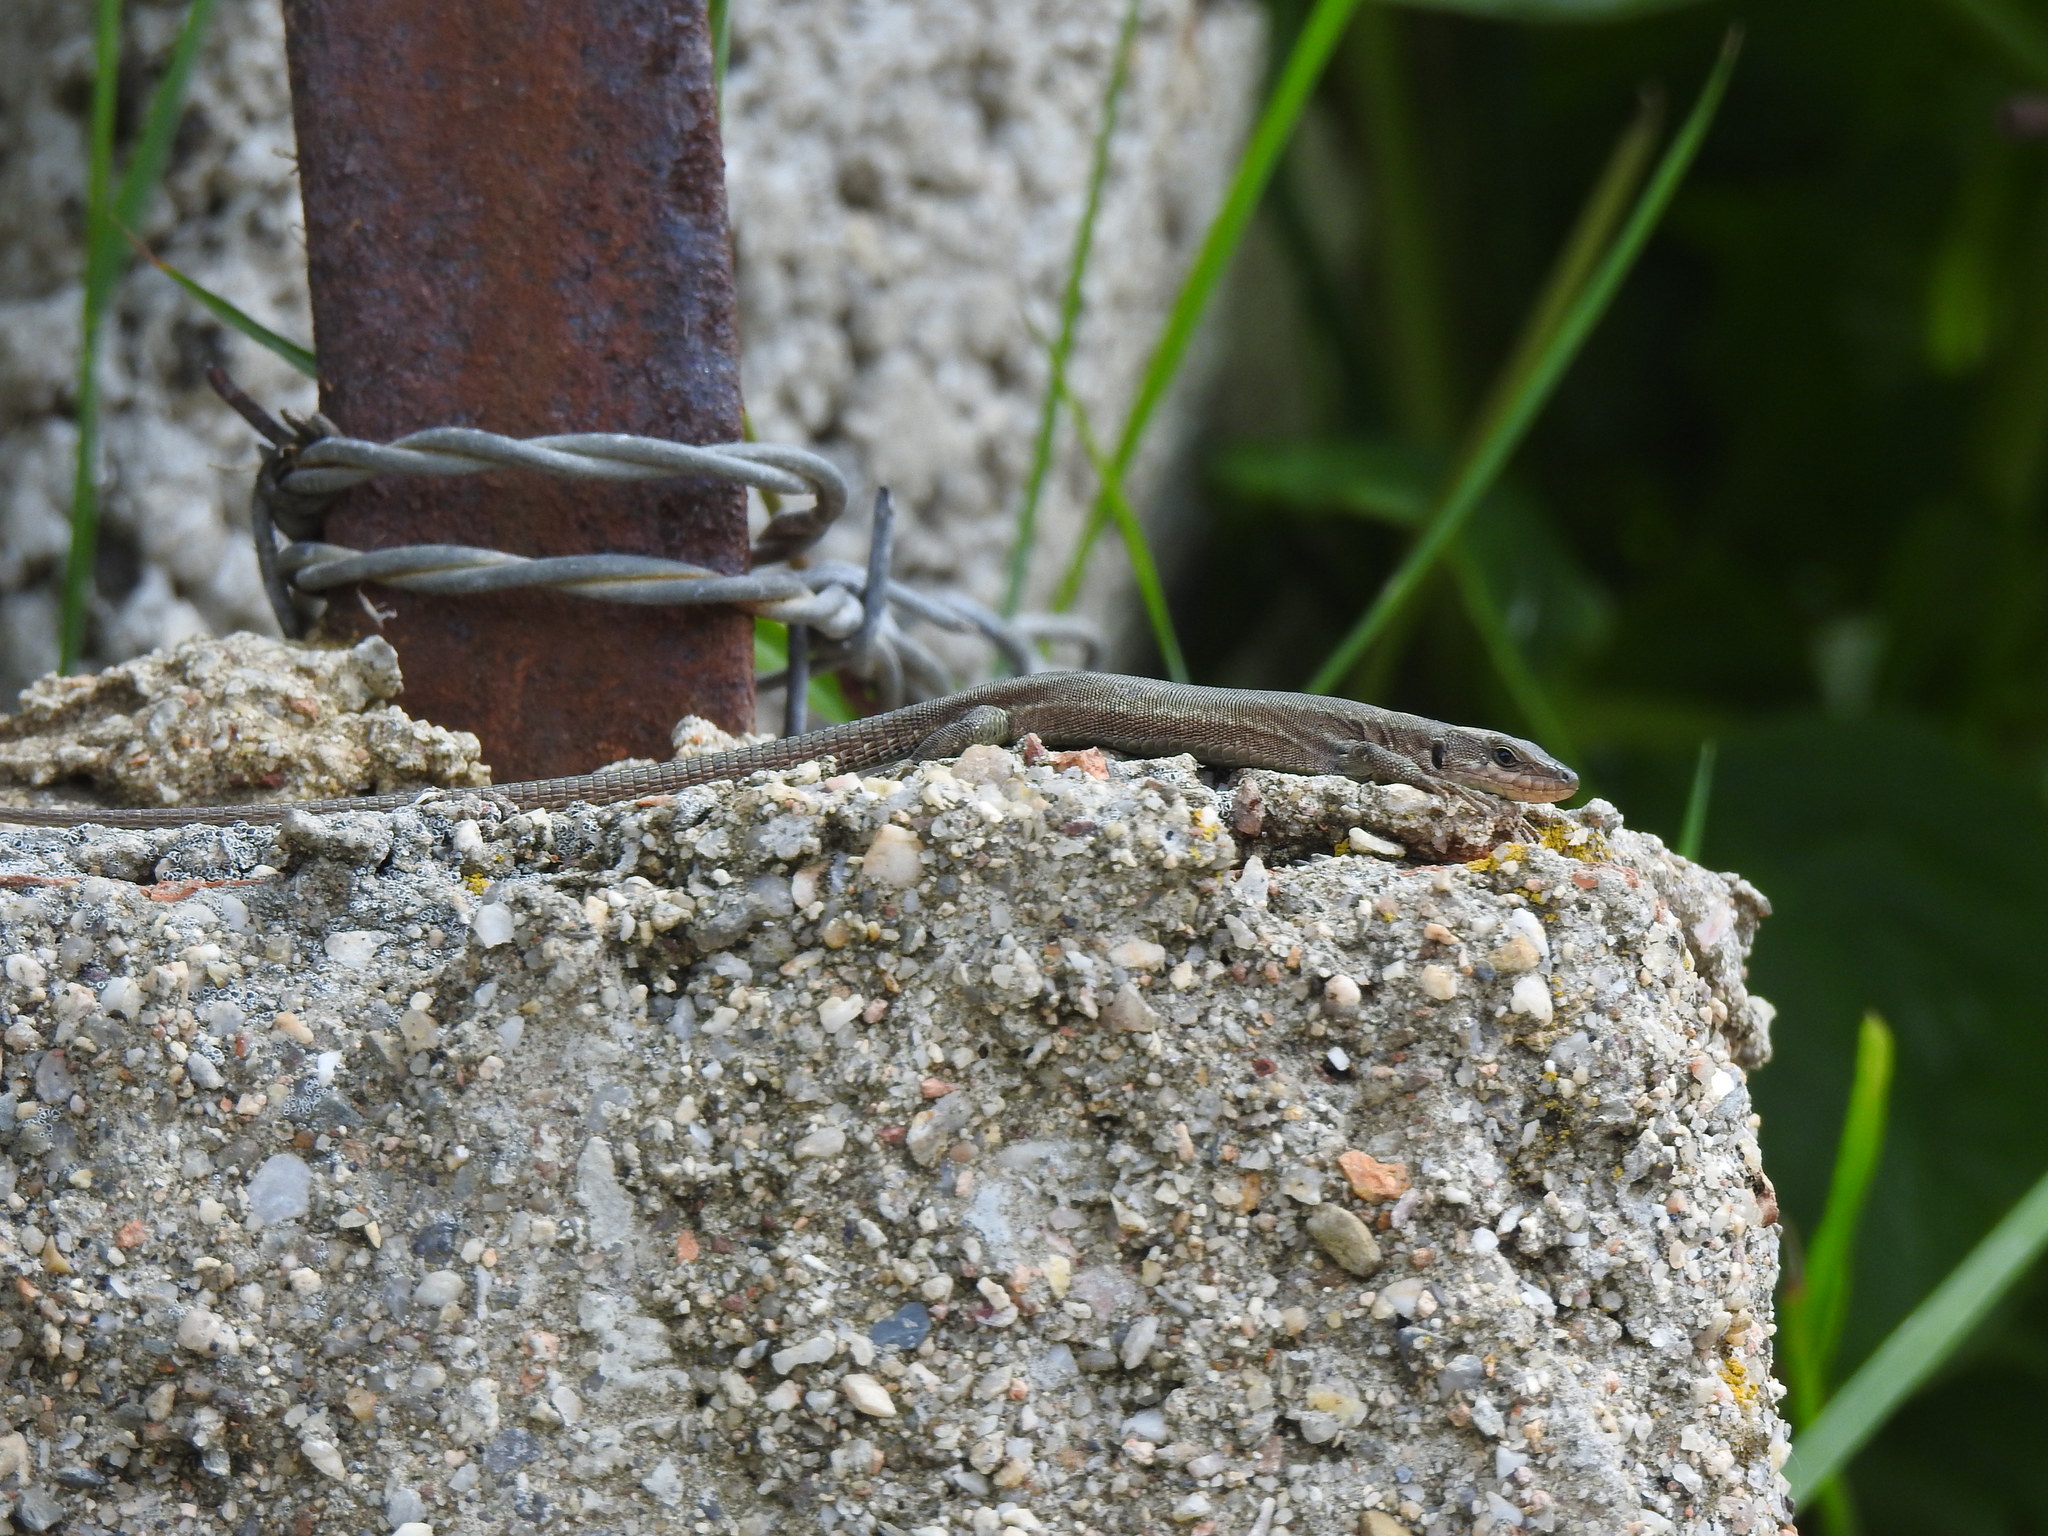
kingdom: Animalia
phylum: Chordata
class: Squamata
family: Lacertidae
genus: Podarcis
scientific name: Podarcis virescens
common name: Geniez’s wall lizard
